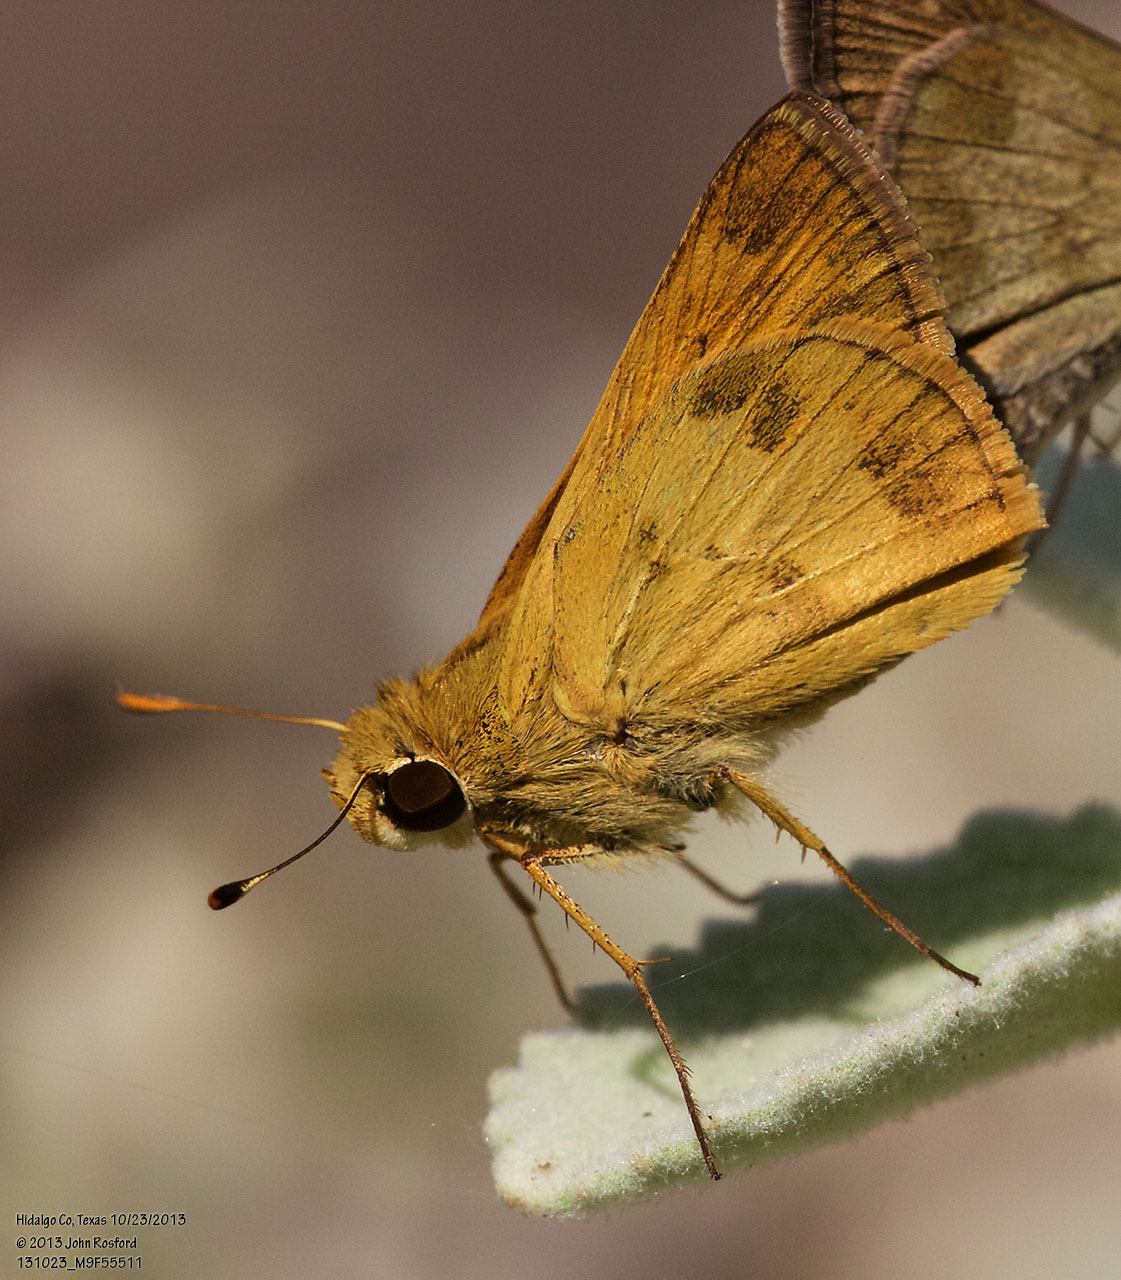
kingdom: Animalia
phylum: Arthropoda
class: Insecta
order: Lepidoptera
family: Hesperiidae
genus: Polites
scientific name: Polites vibex
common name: Whirlabout
